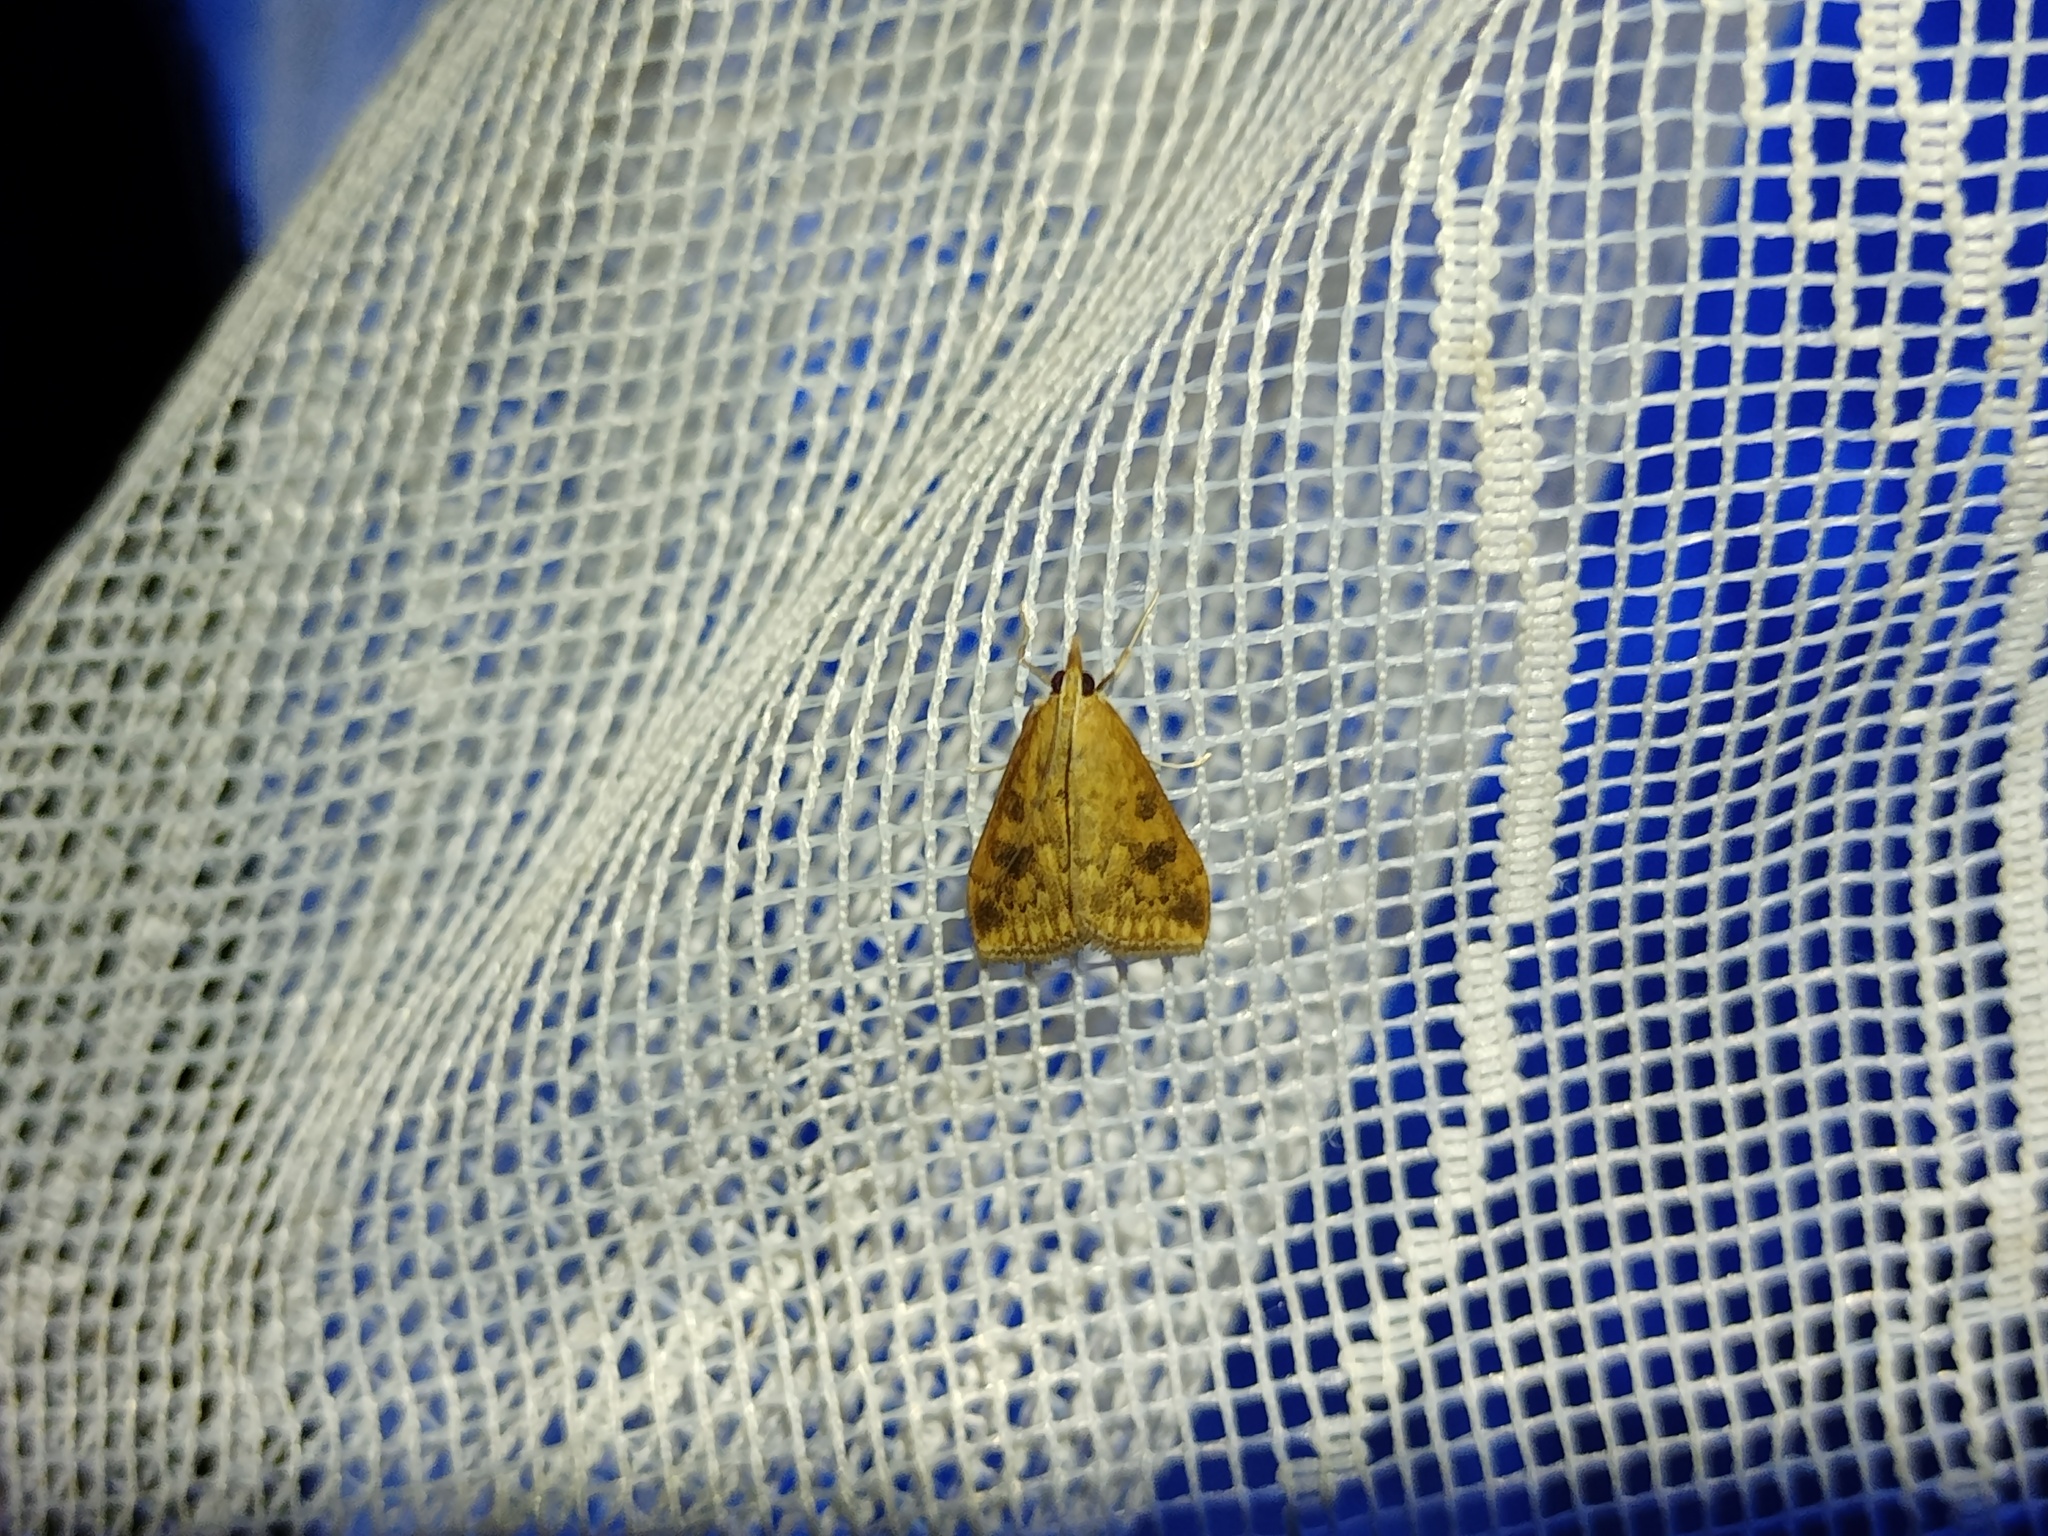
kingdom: Animalia
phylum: Arthropoda
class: Insecta
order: Lepidoptera
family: Crambidae
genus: Udea
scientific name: Udea ferrugalis
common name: Rusty dot
